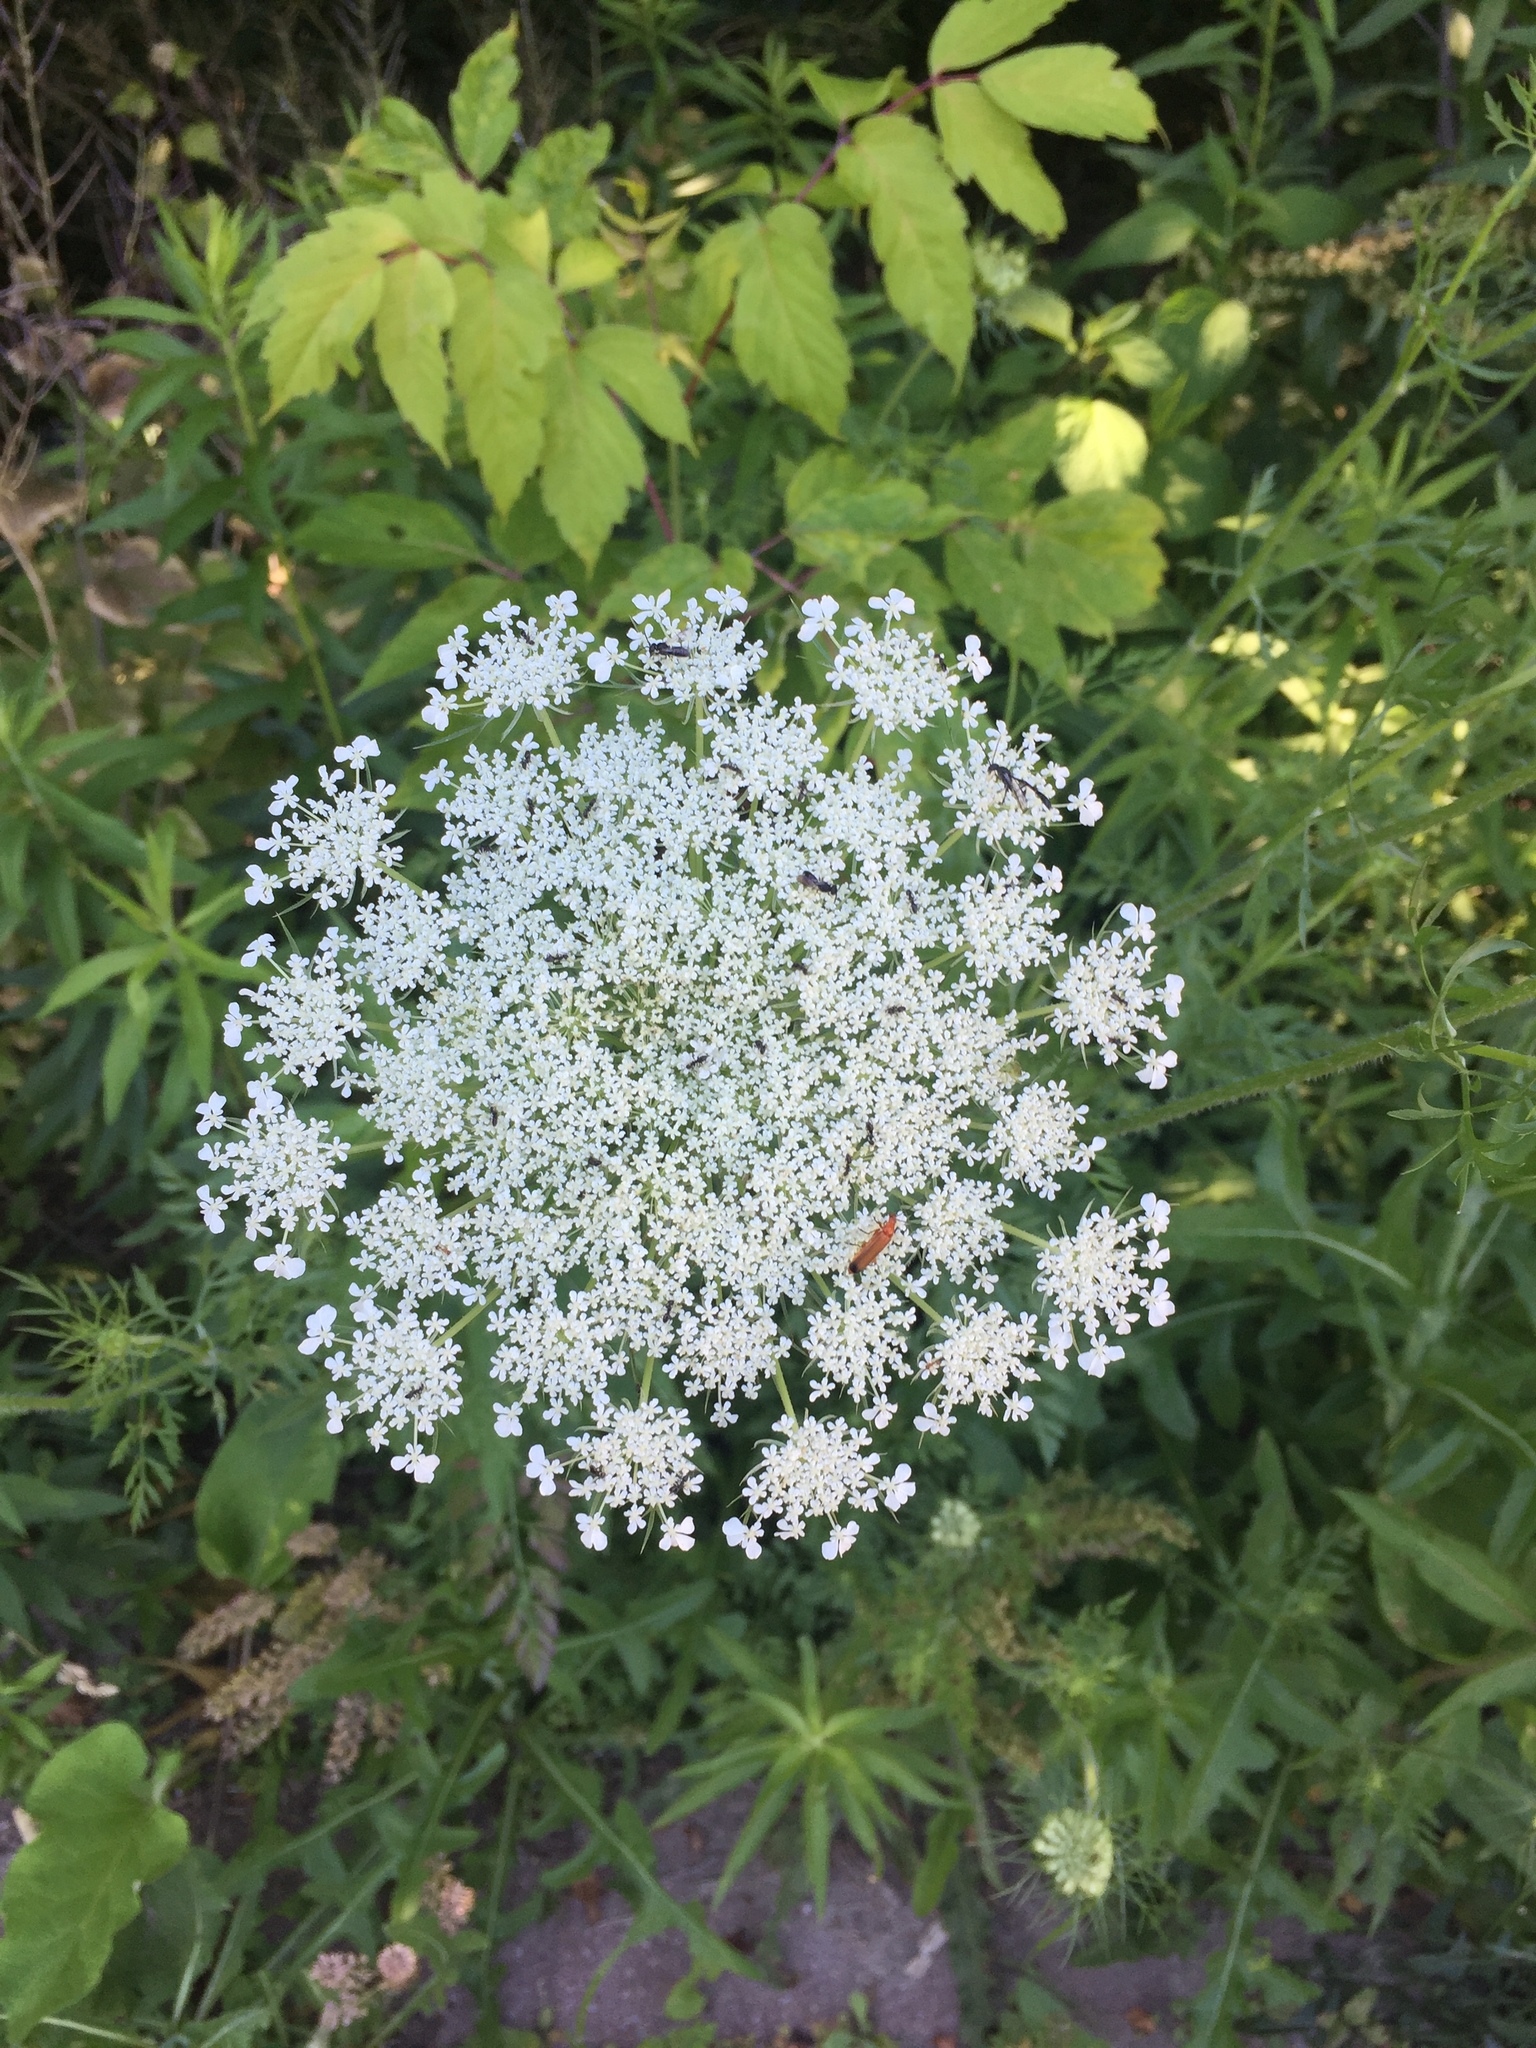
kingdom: Plantae
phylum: Tracheophyta
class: Magnoliopsida
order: Apiales
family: Apiaceae
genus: Daucus
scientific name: Daucus carota
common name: Wild carrot
